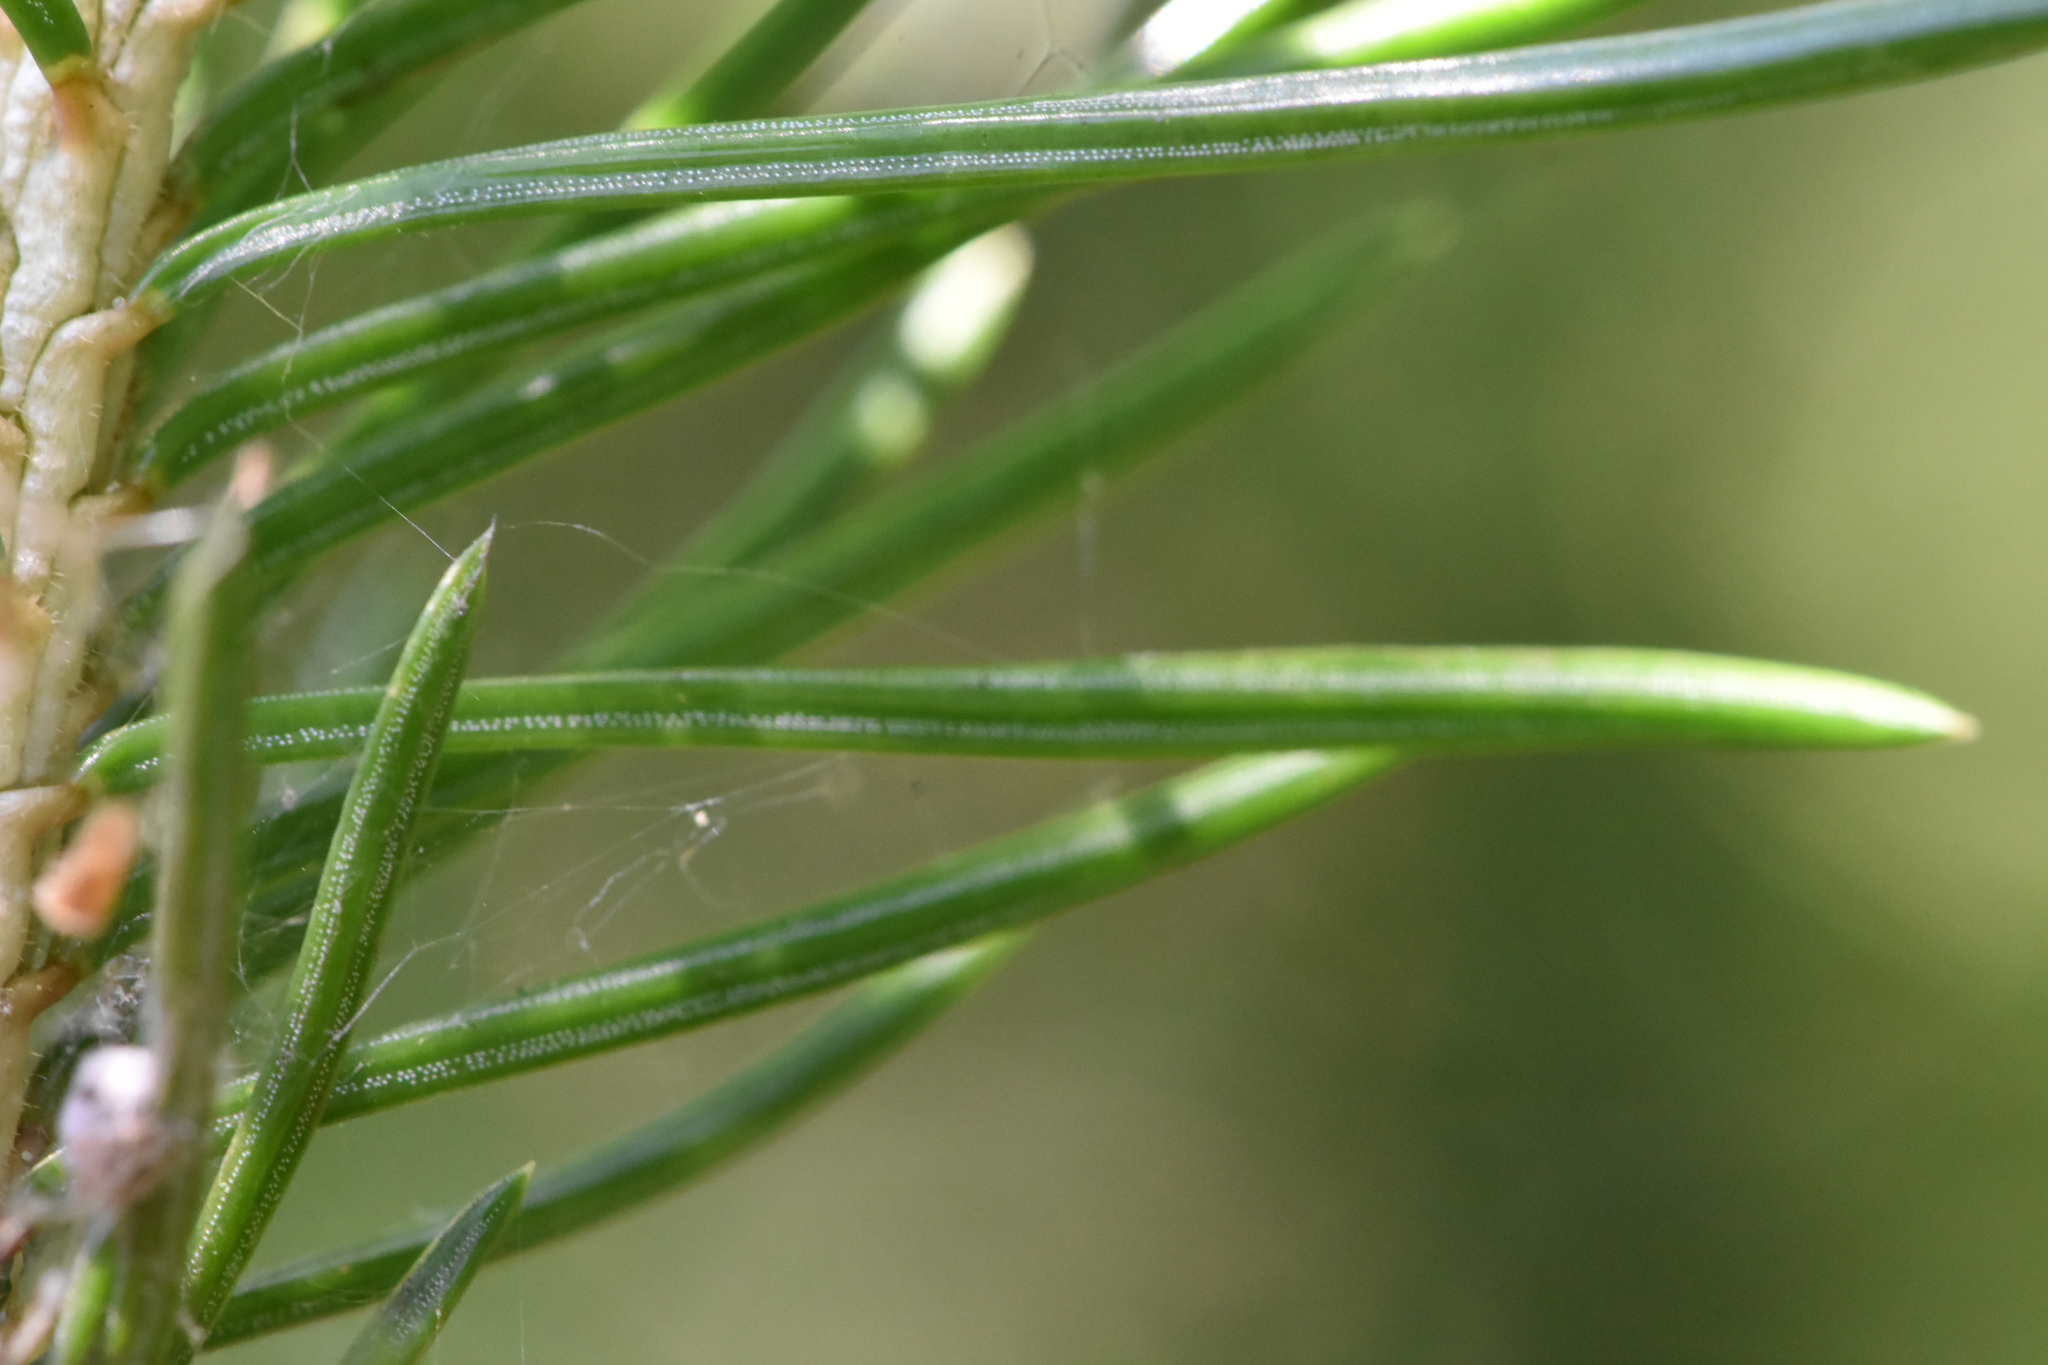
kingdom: Plantae
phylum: Tracheophyta
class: Pinopsida
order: Pinales
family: Pinaceae
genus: Picea
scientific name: Picea obovata
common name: Siberian spruce
